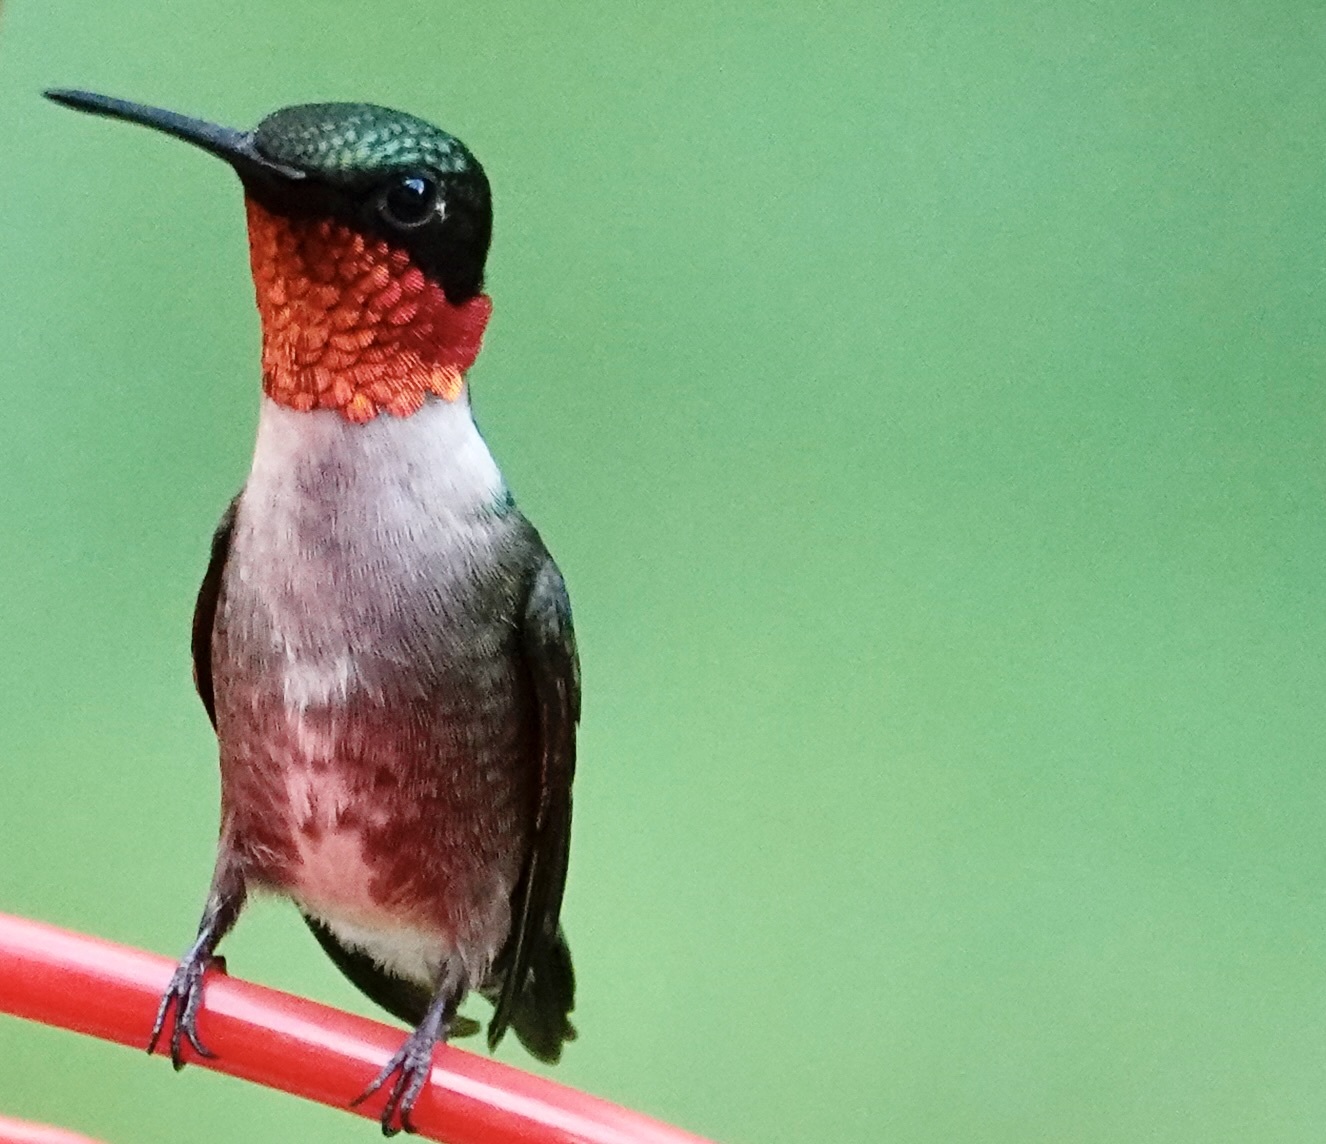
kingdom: Animalia
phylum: Chordata
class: Aves
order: Apodiformes
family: Trochilidae
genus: Archilochus
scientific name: Archilochus colubris
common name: Ruby-throated hummingbird
